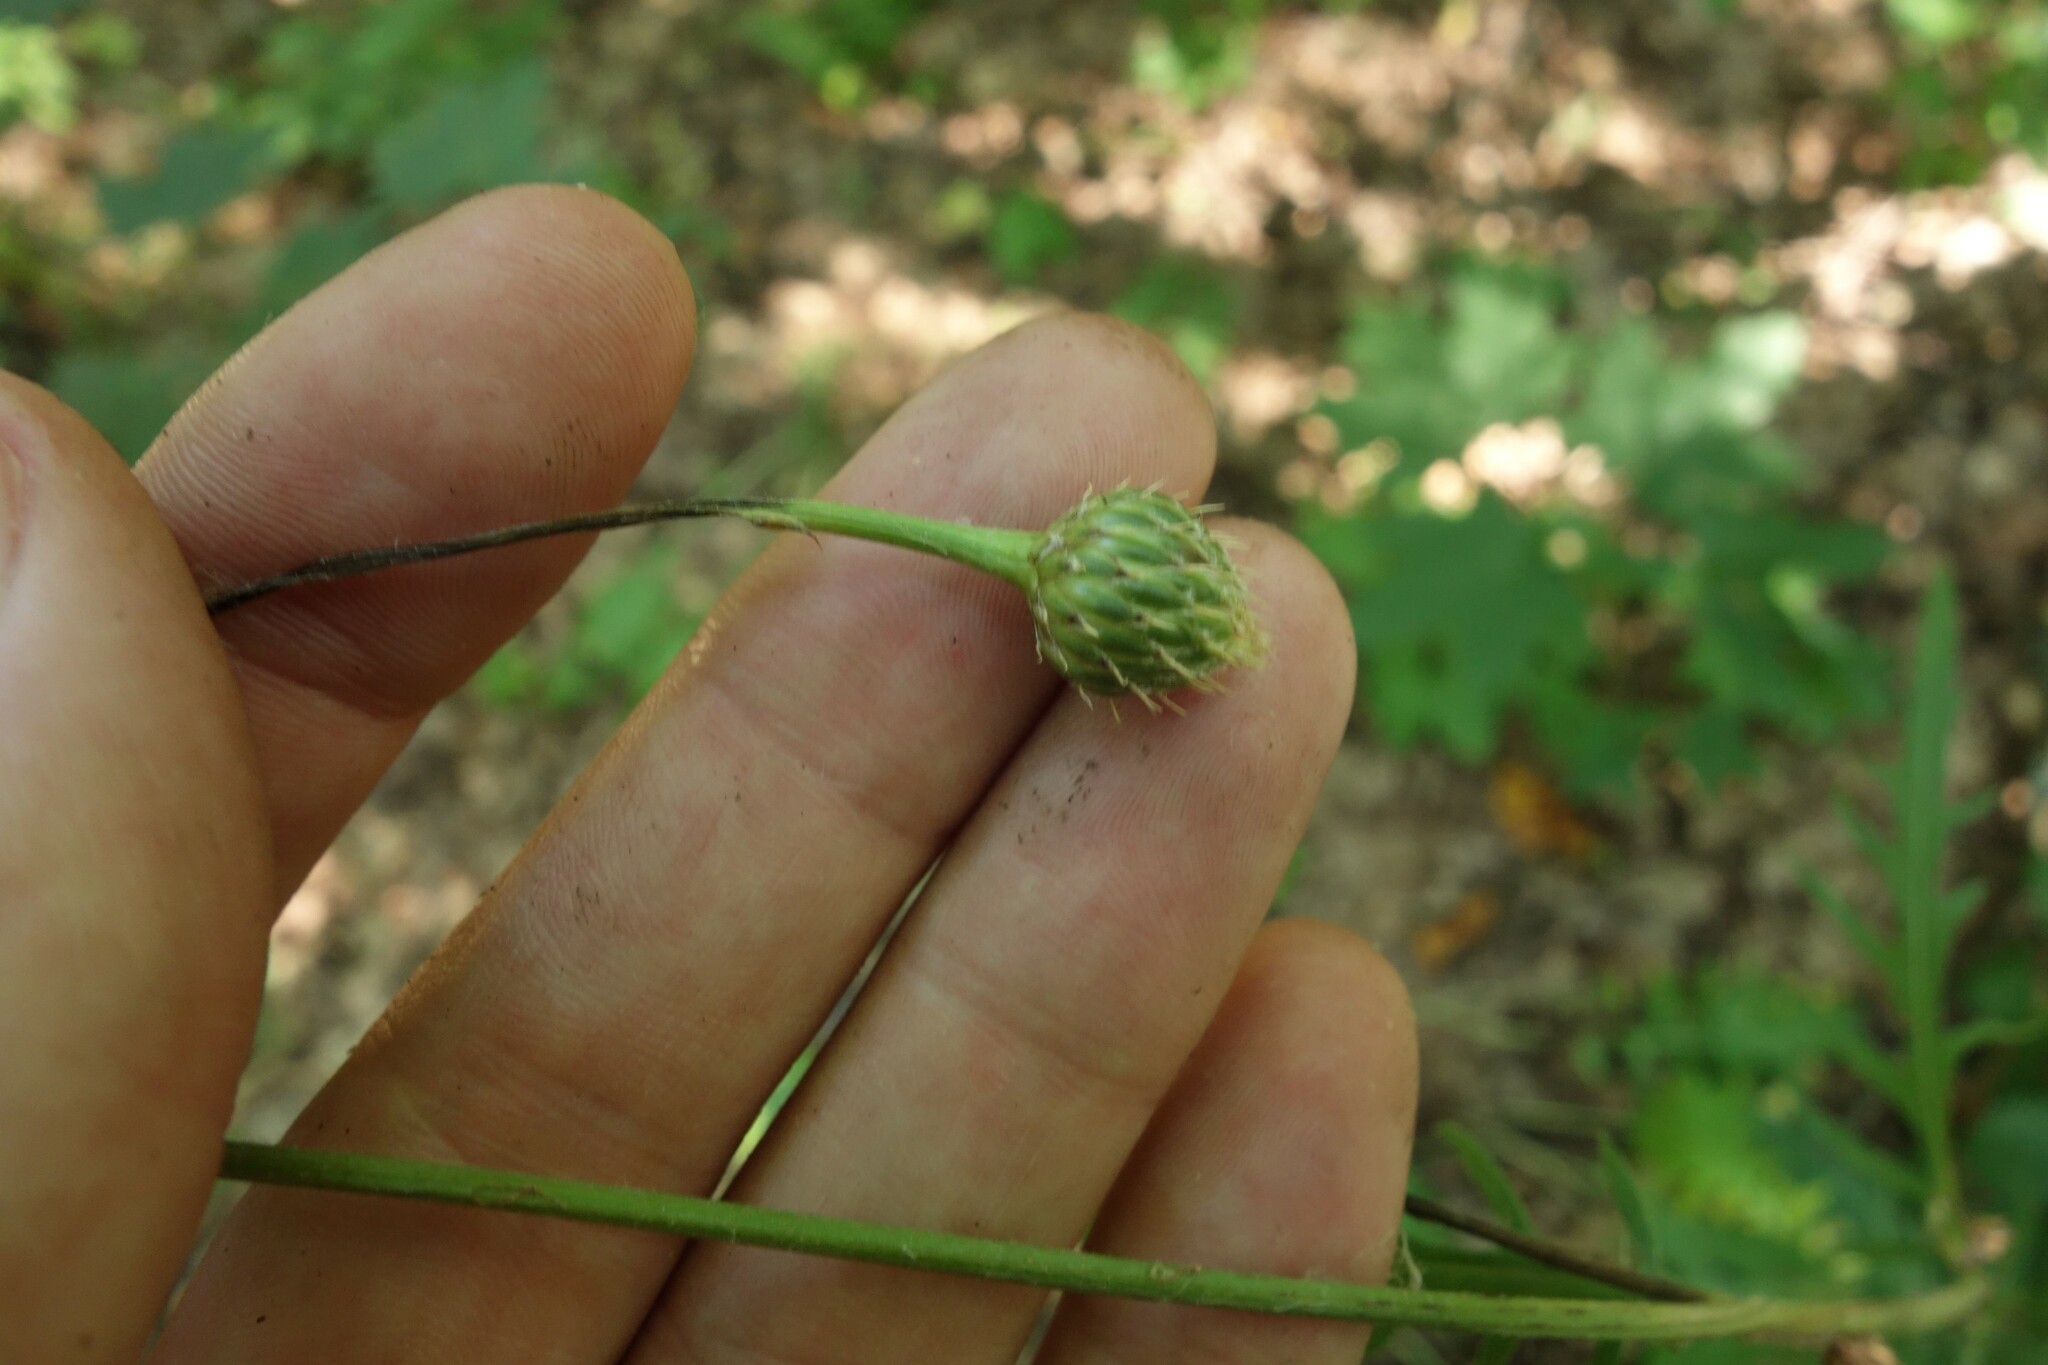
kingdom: Plantae
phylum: Tracheophyta
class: Magnoliopsida
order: Asterales
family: Asteraceae
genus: Klasea
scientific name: Klasea radiata
